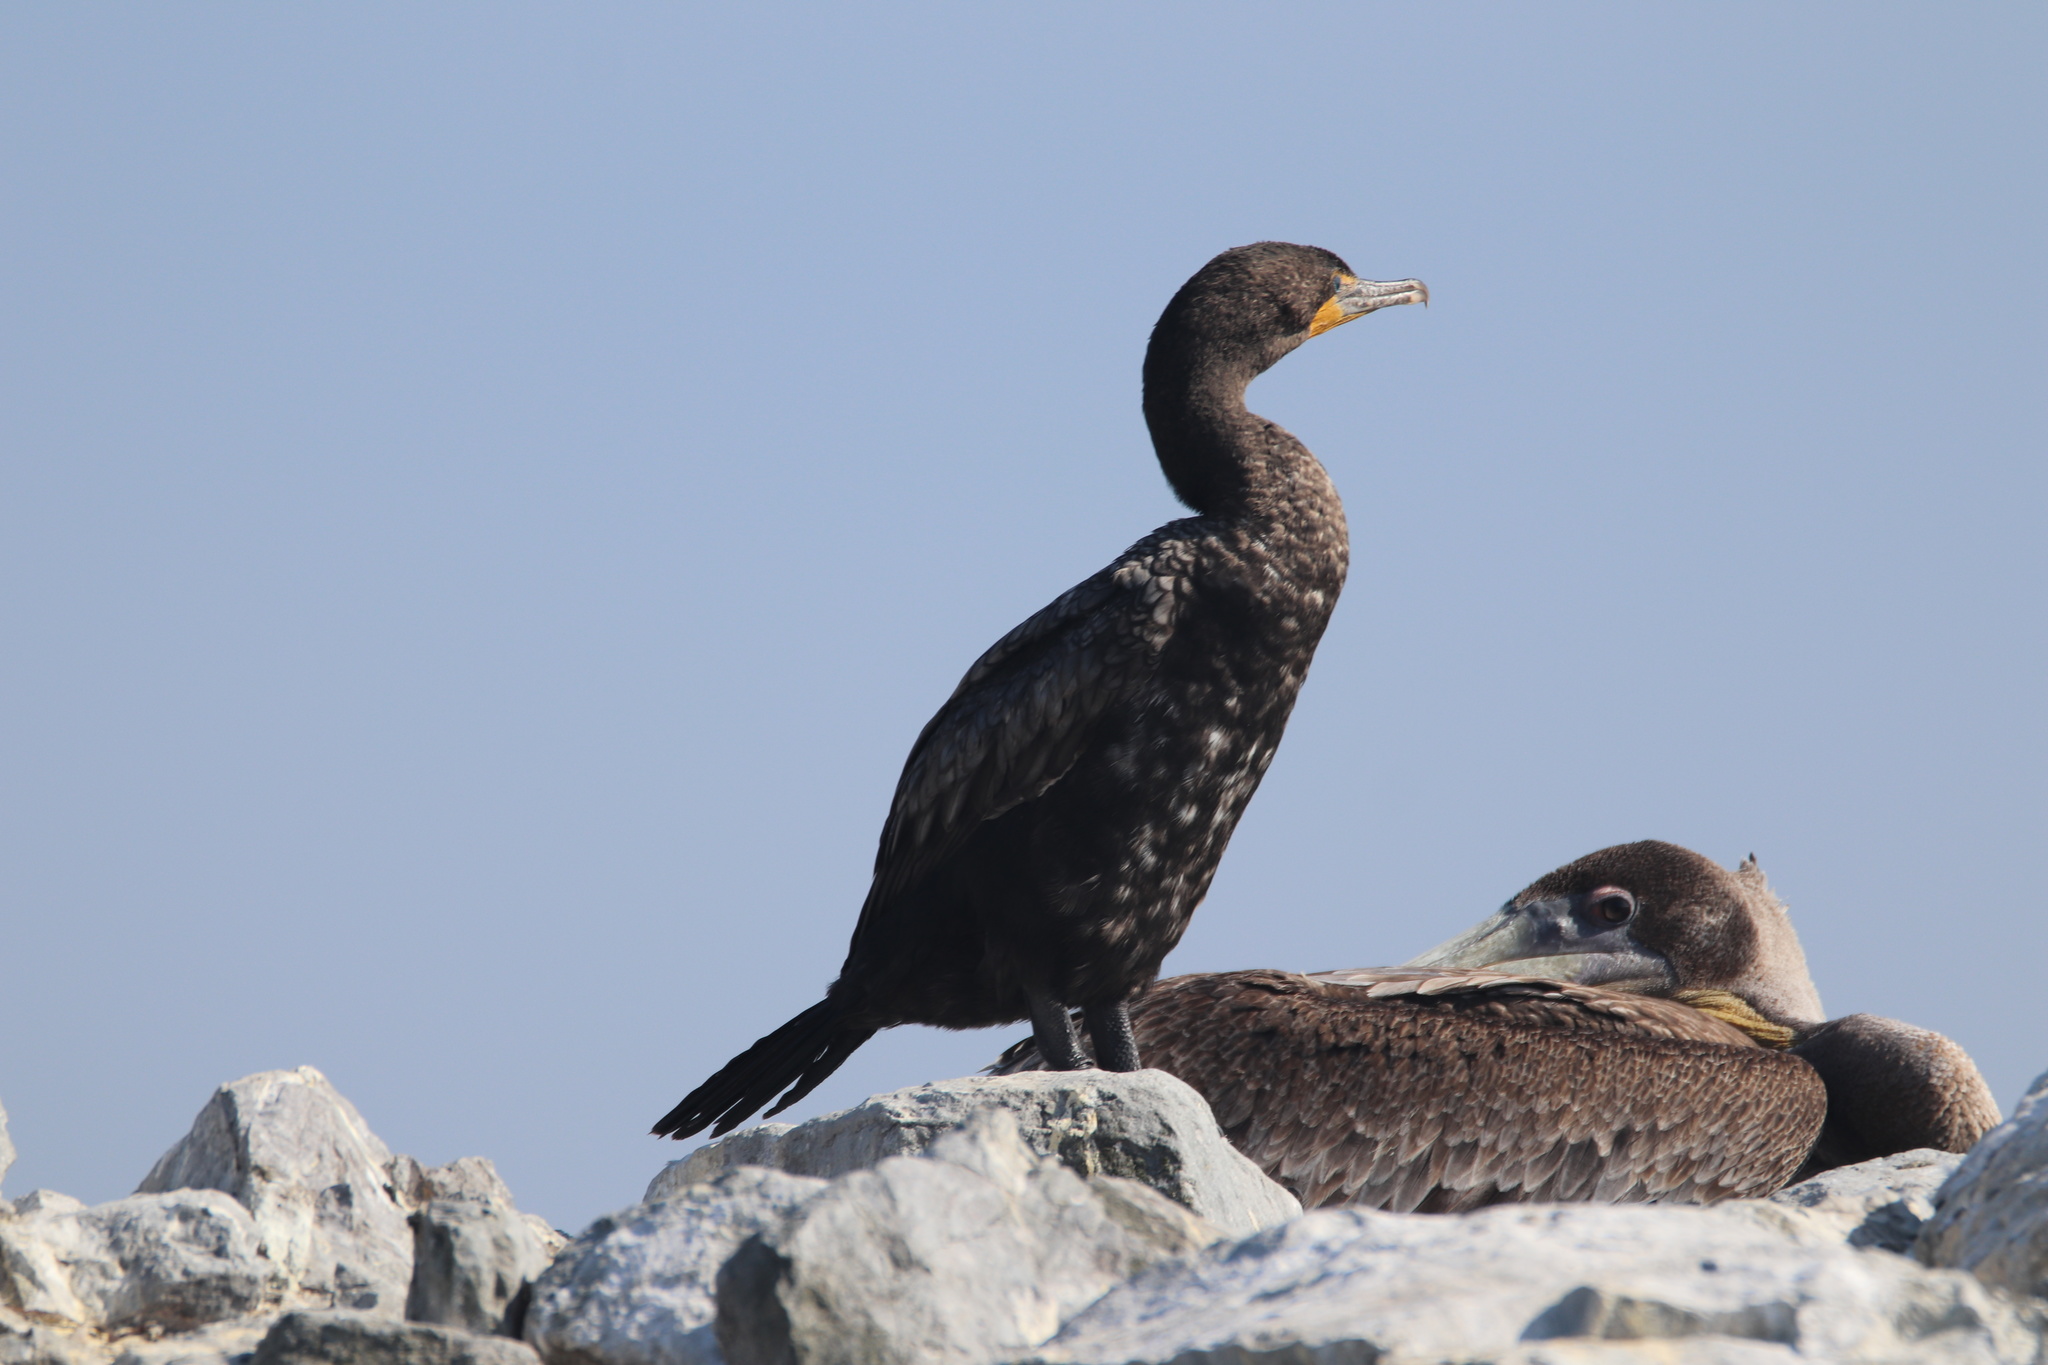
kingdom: Animalia
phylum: Chordata
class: Aves
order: Suliformes
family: Phalacrocoracidae
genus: Phalacrocorax
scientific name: Phalacrocorax auritus
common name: Double-crested cormorant
